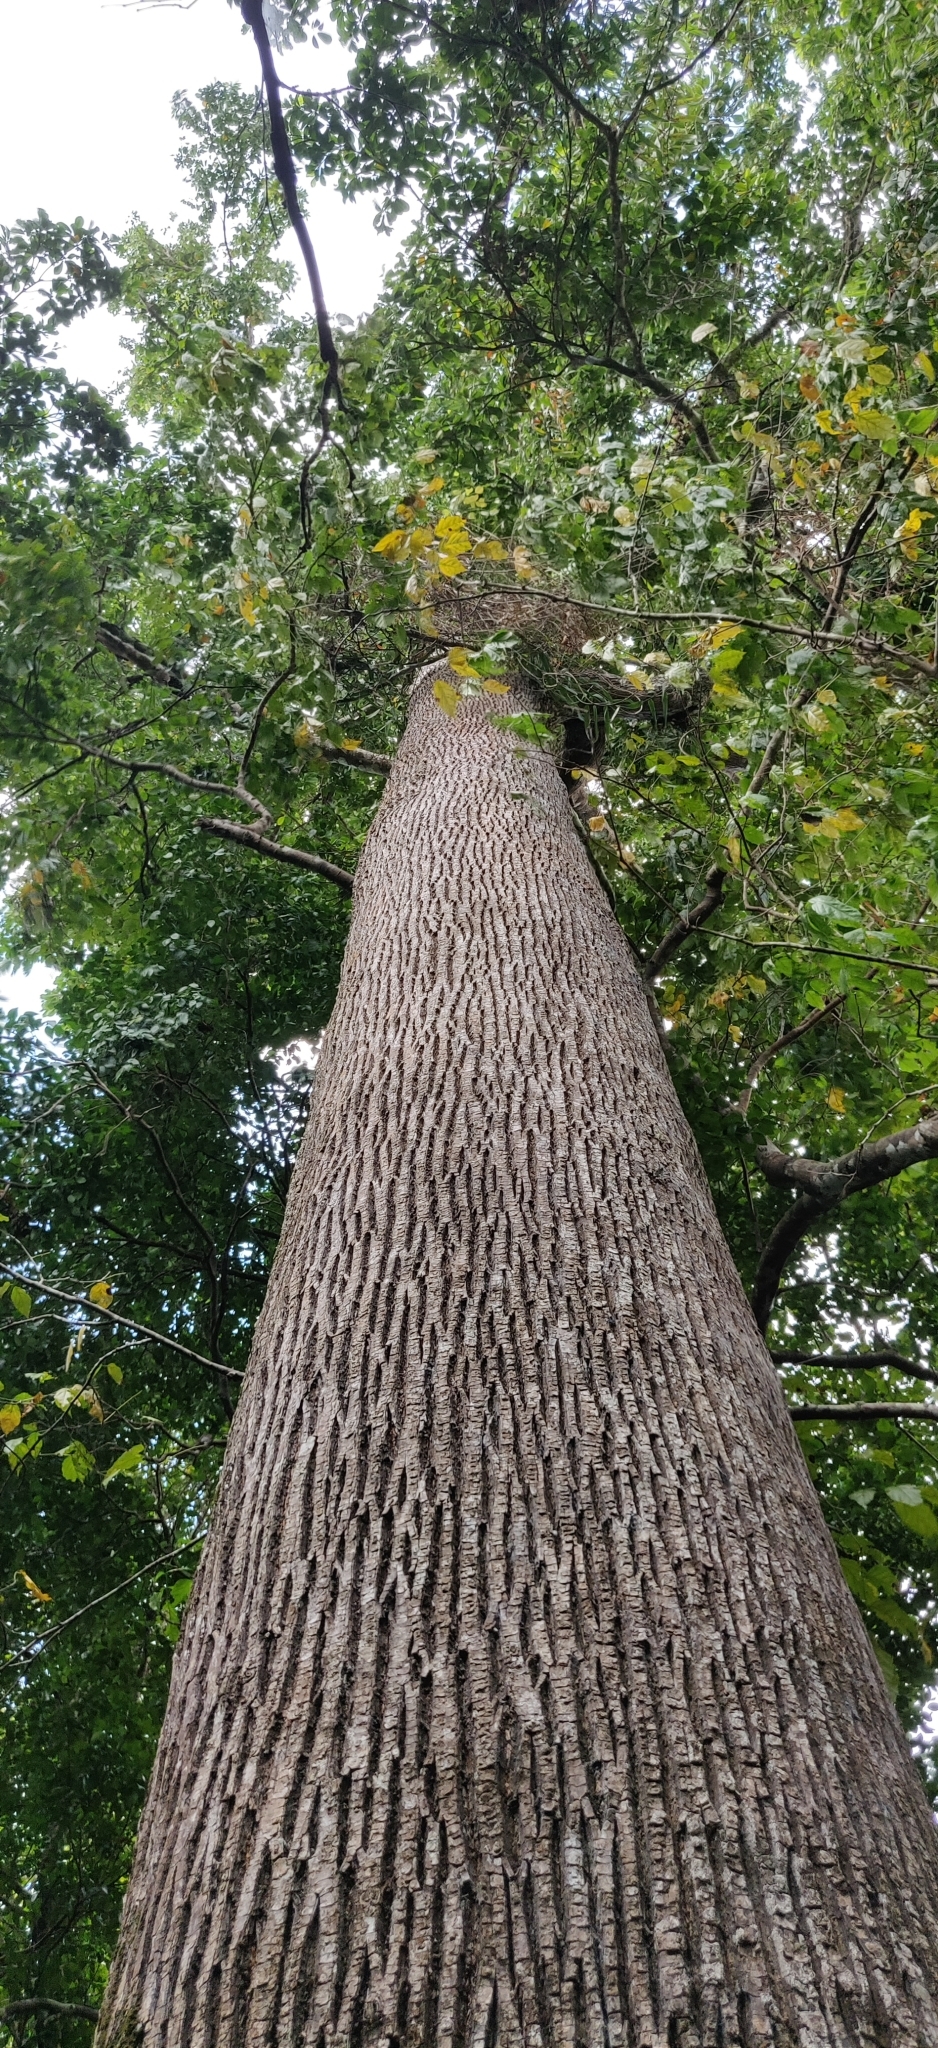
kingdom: Plantae
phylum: Tracheophyta
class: Magnoliopsida
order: Ericales
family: Sapotaceae
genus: Manilkara
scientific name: Manilkara littoralis
